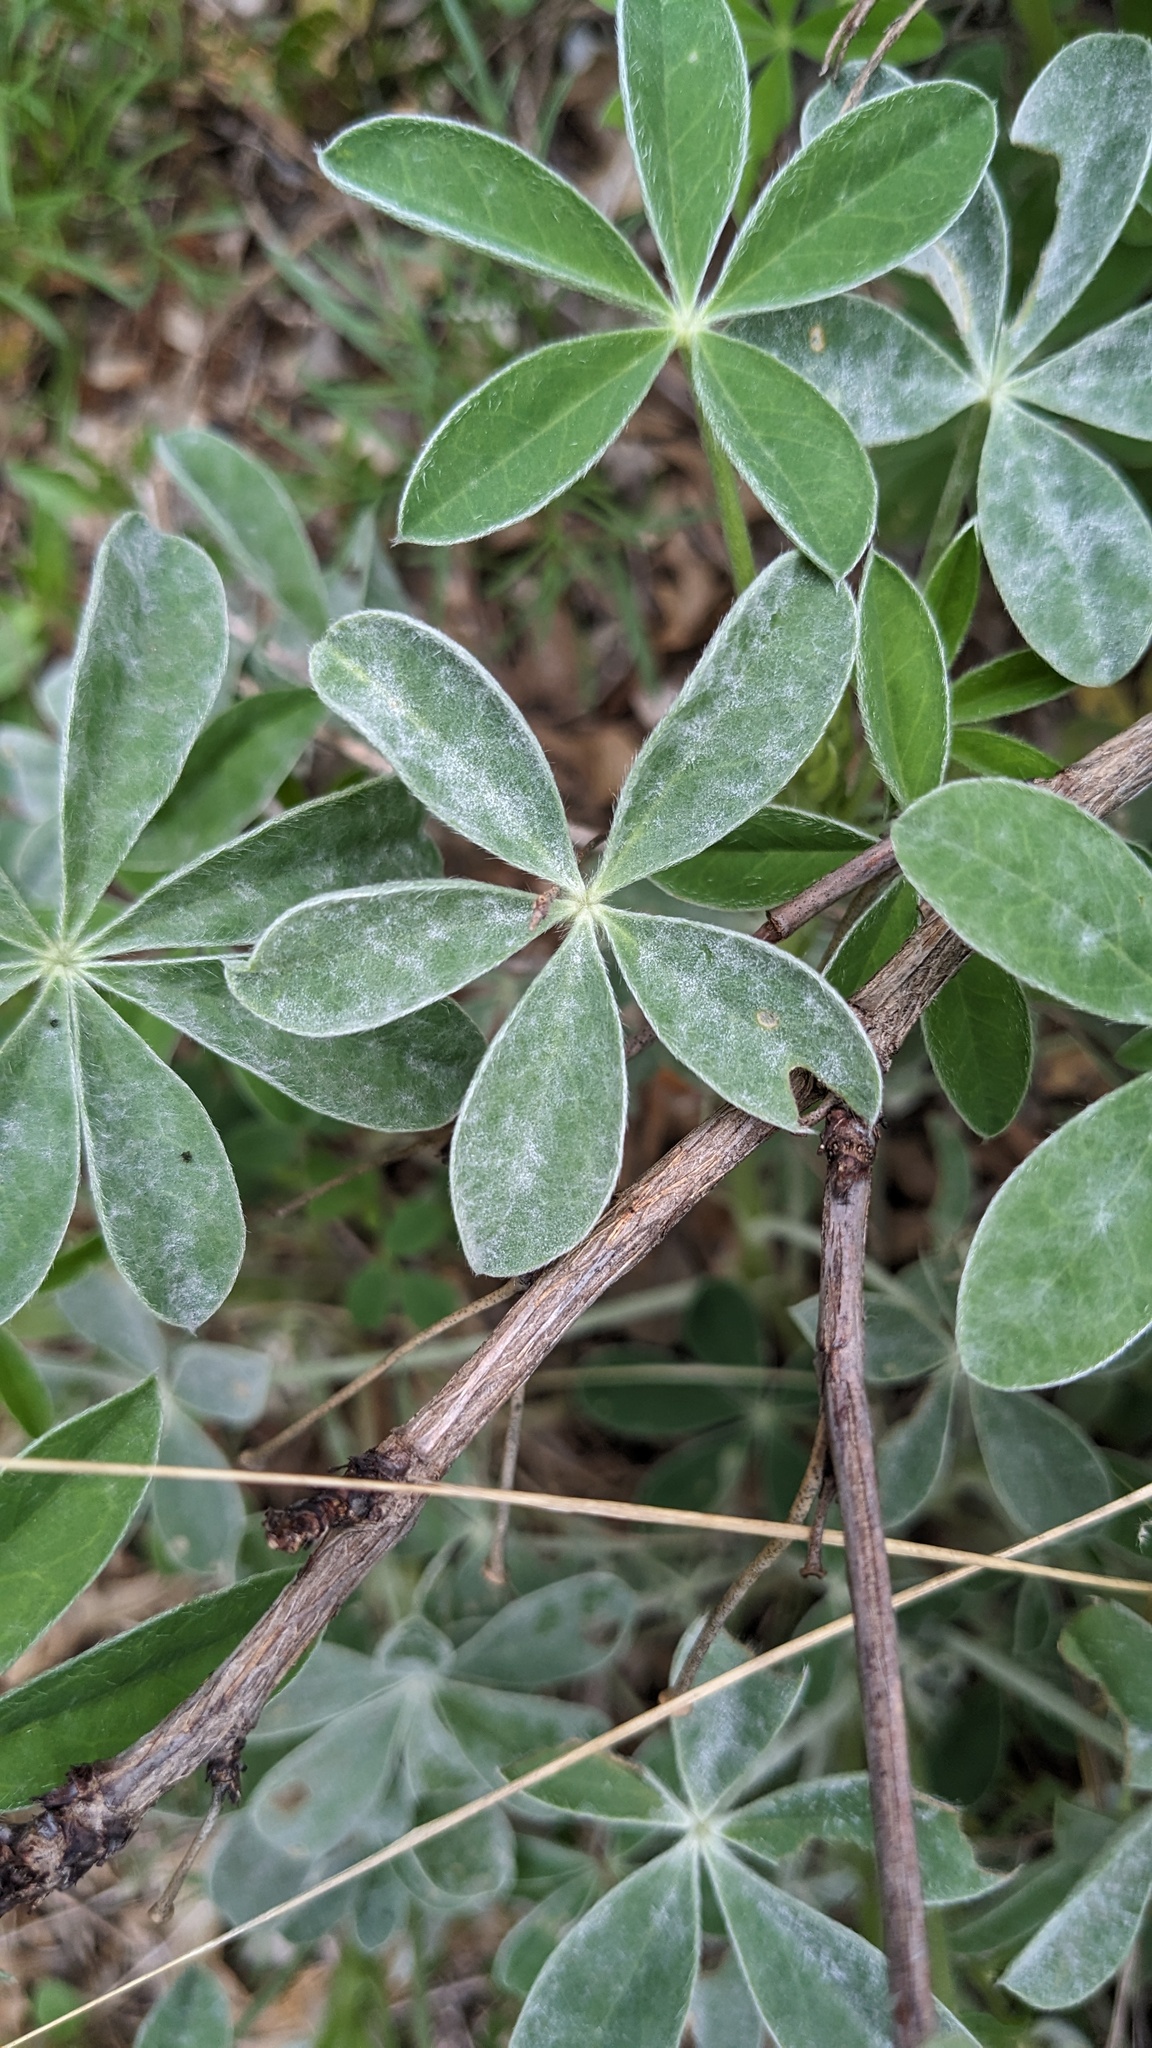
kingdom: Fungi
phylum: Ascomycota
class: Leotiomycetes
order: Helotiales
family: Erysiphaceae
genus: Erysiphe
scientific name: Erysiphe
